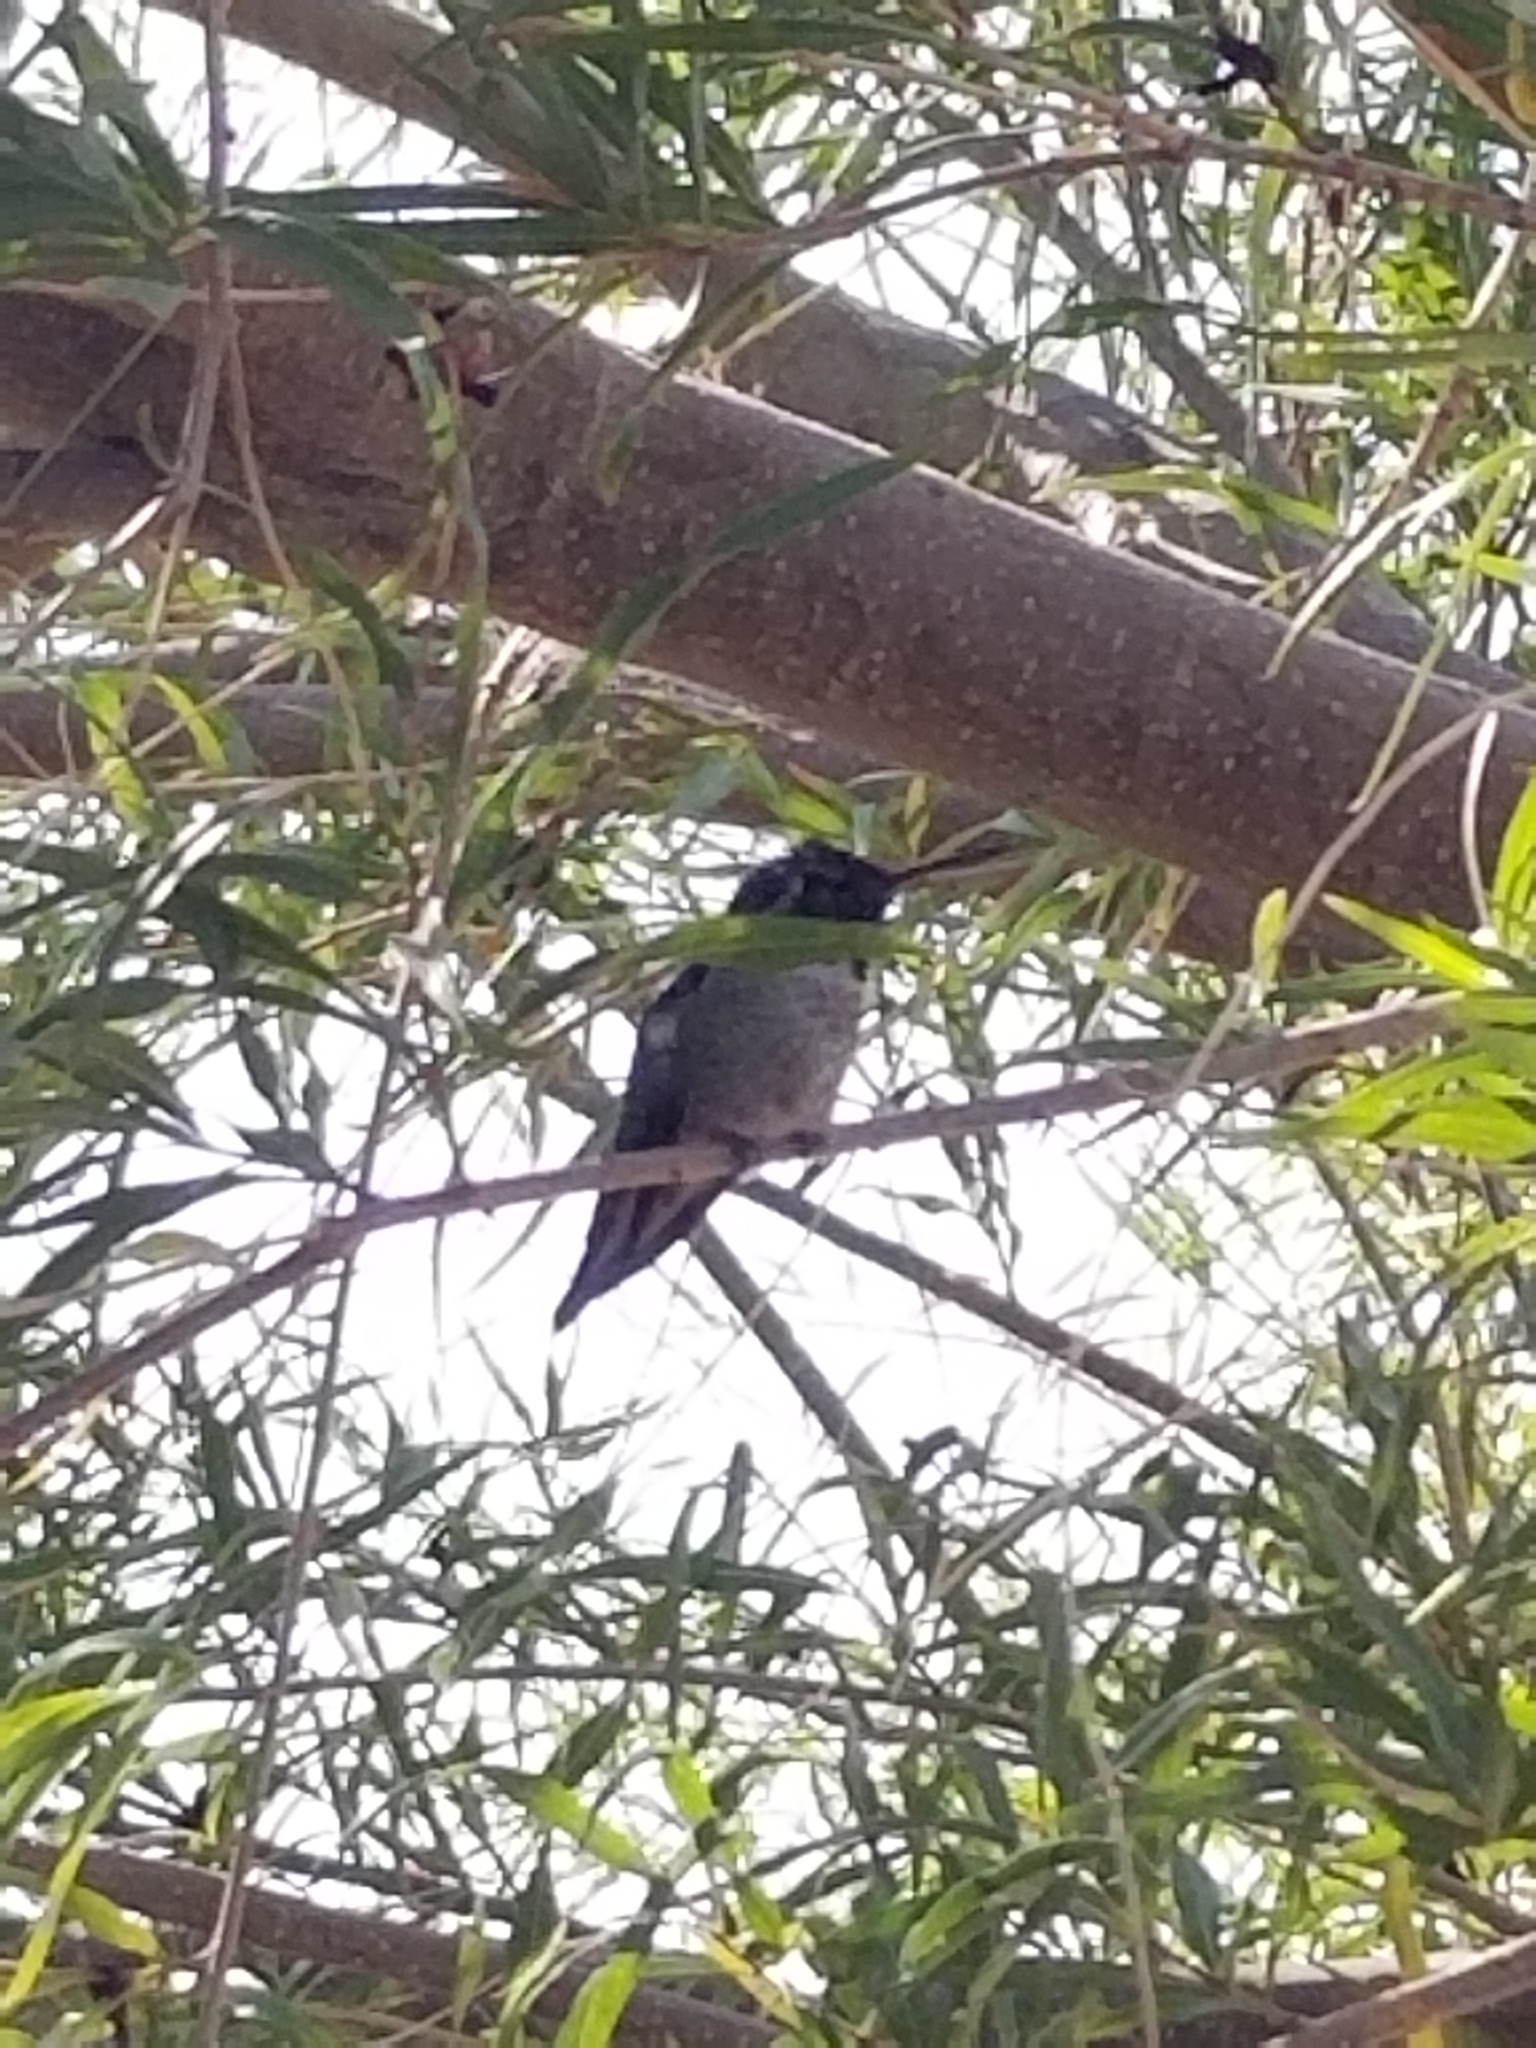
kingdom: Animalia
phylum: Chordata
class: Aves
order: Apodiformes
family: Trochilidae
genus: Calypte
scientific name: Calypte anna
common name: Anna's hummingbird
